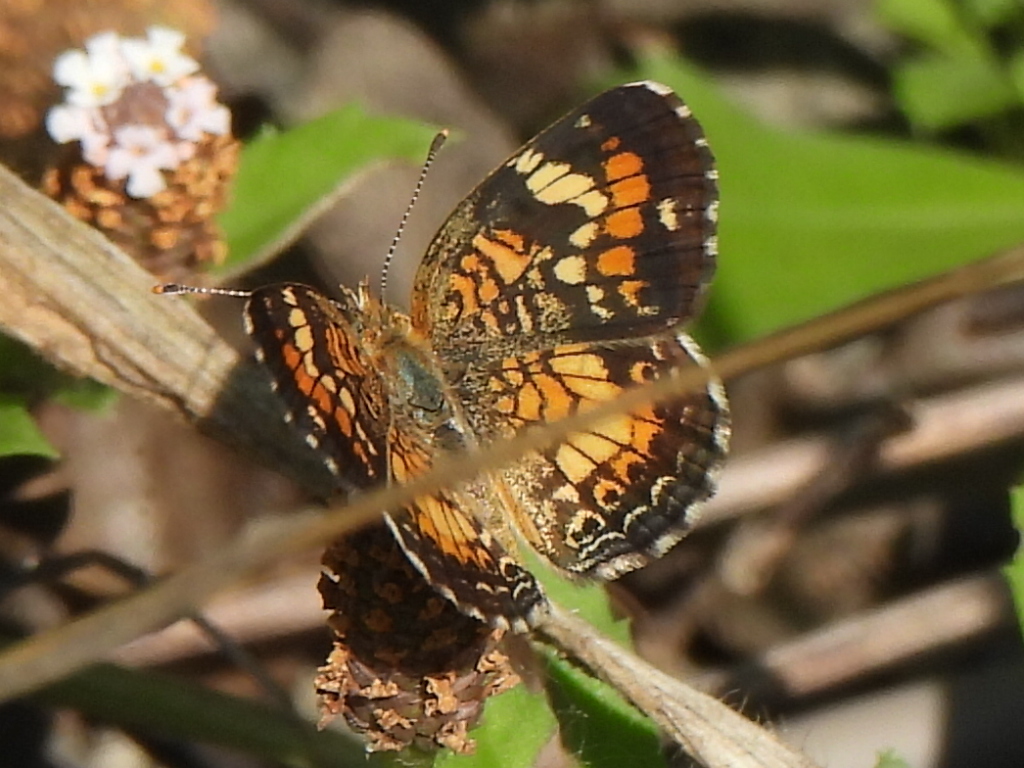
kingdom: Animalia
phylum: Arthropoda
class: Insecta
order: Lepidoptera
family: Nymphalidae
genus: Phyciodes
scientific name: Phyciodes phaon
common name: Phaon crescent
